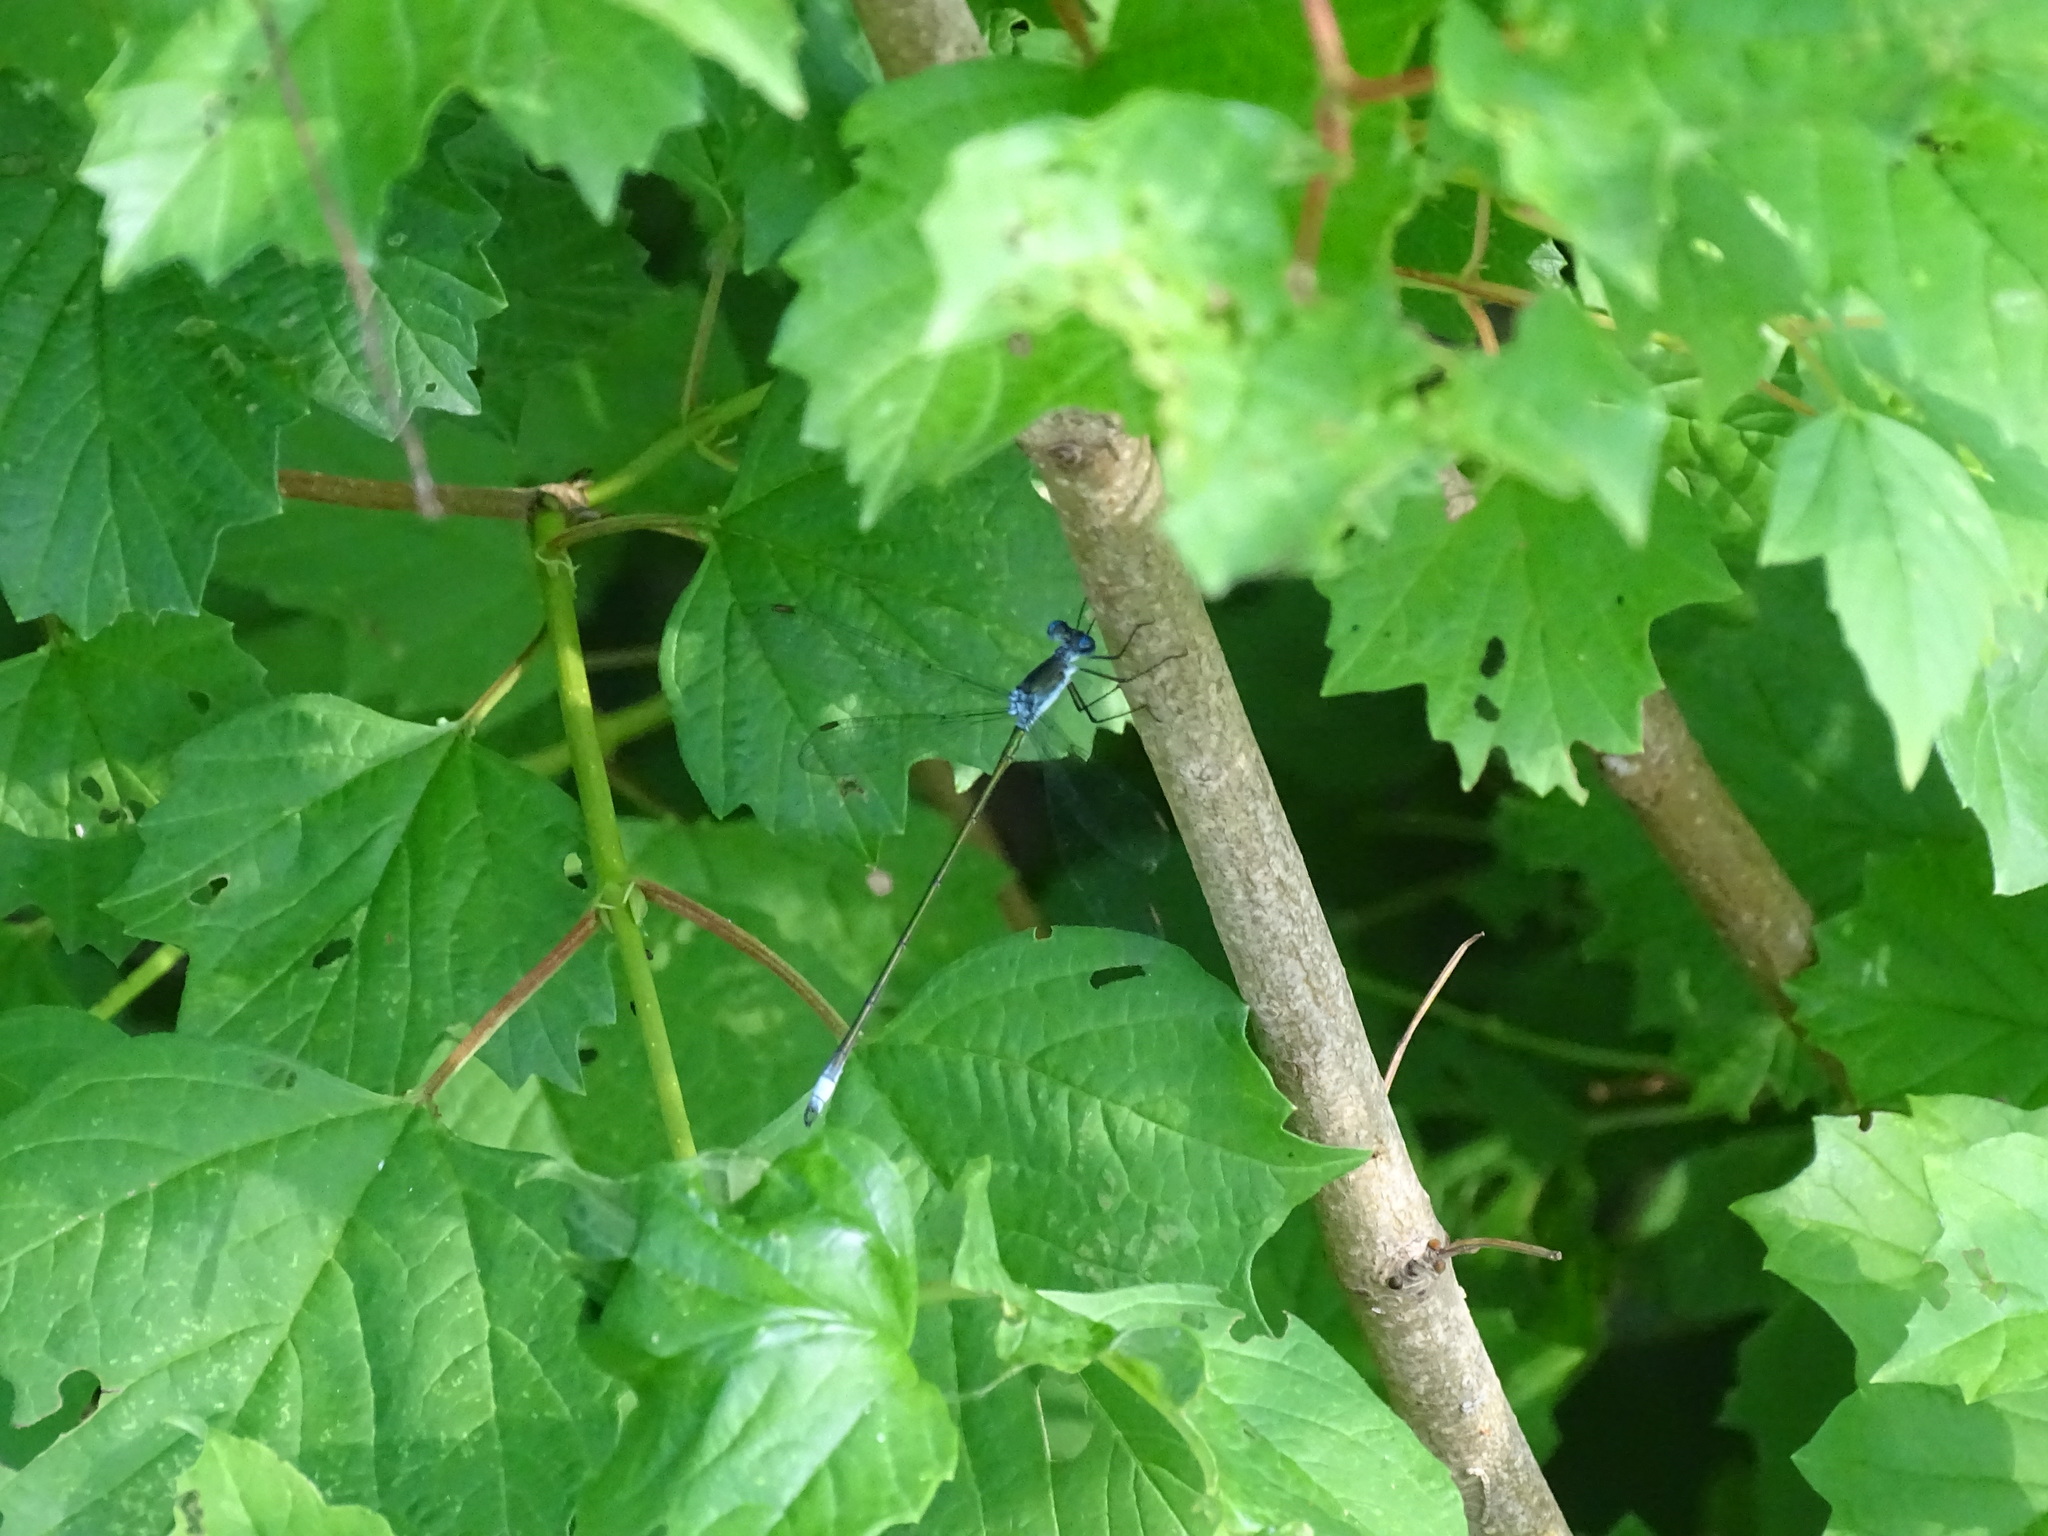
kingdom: Animalia
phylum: Arthropoda
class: Insecta
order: Odonata
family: Lestidae
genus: Lestes
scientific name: Lestes vigilax
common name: Swamp spreadwing
